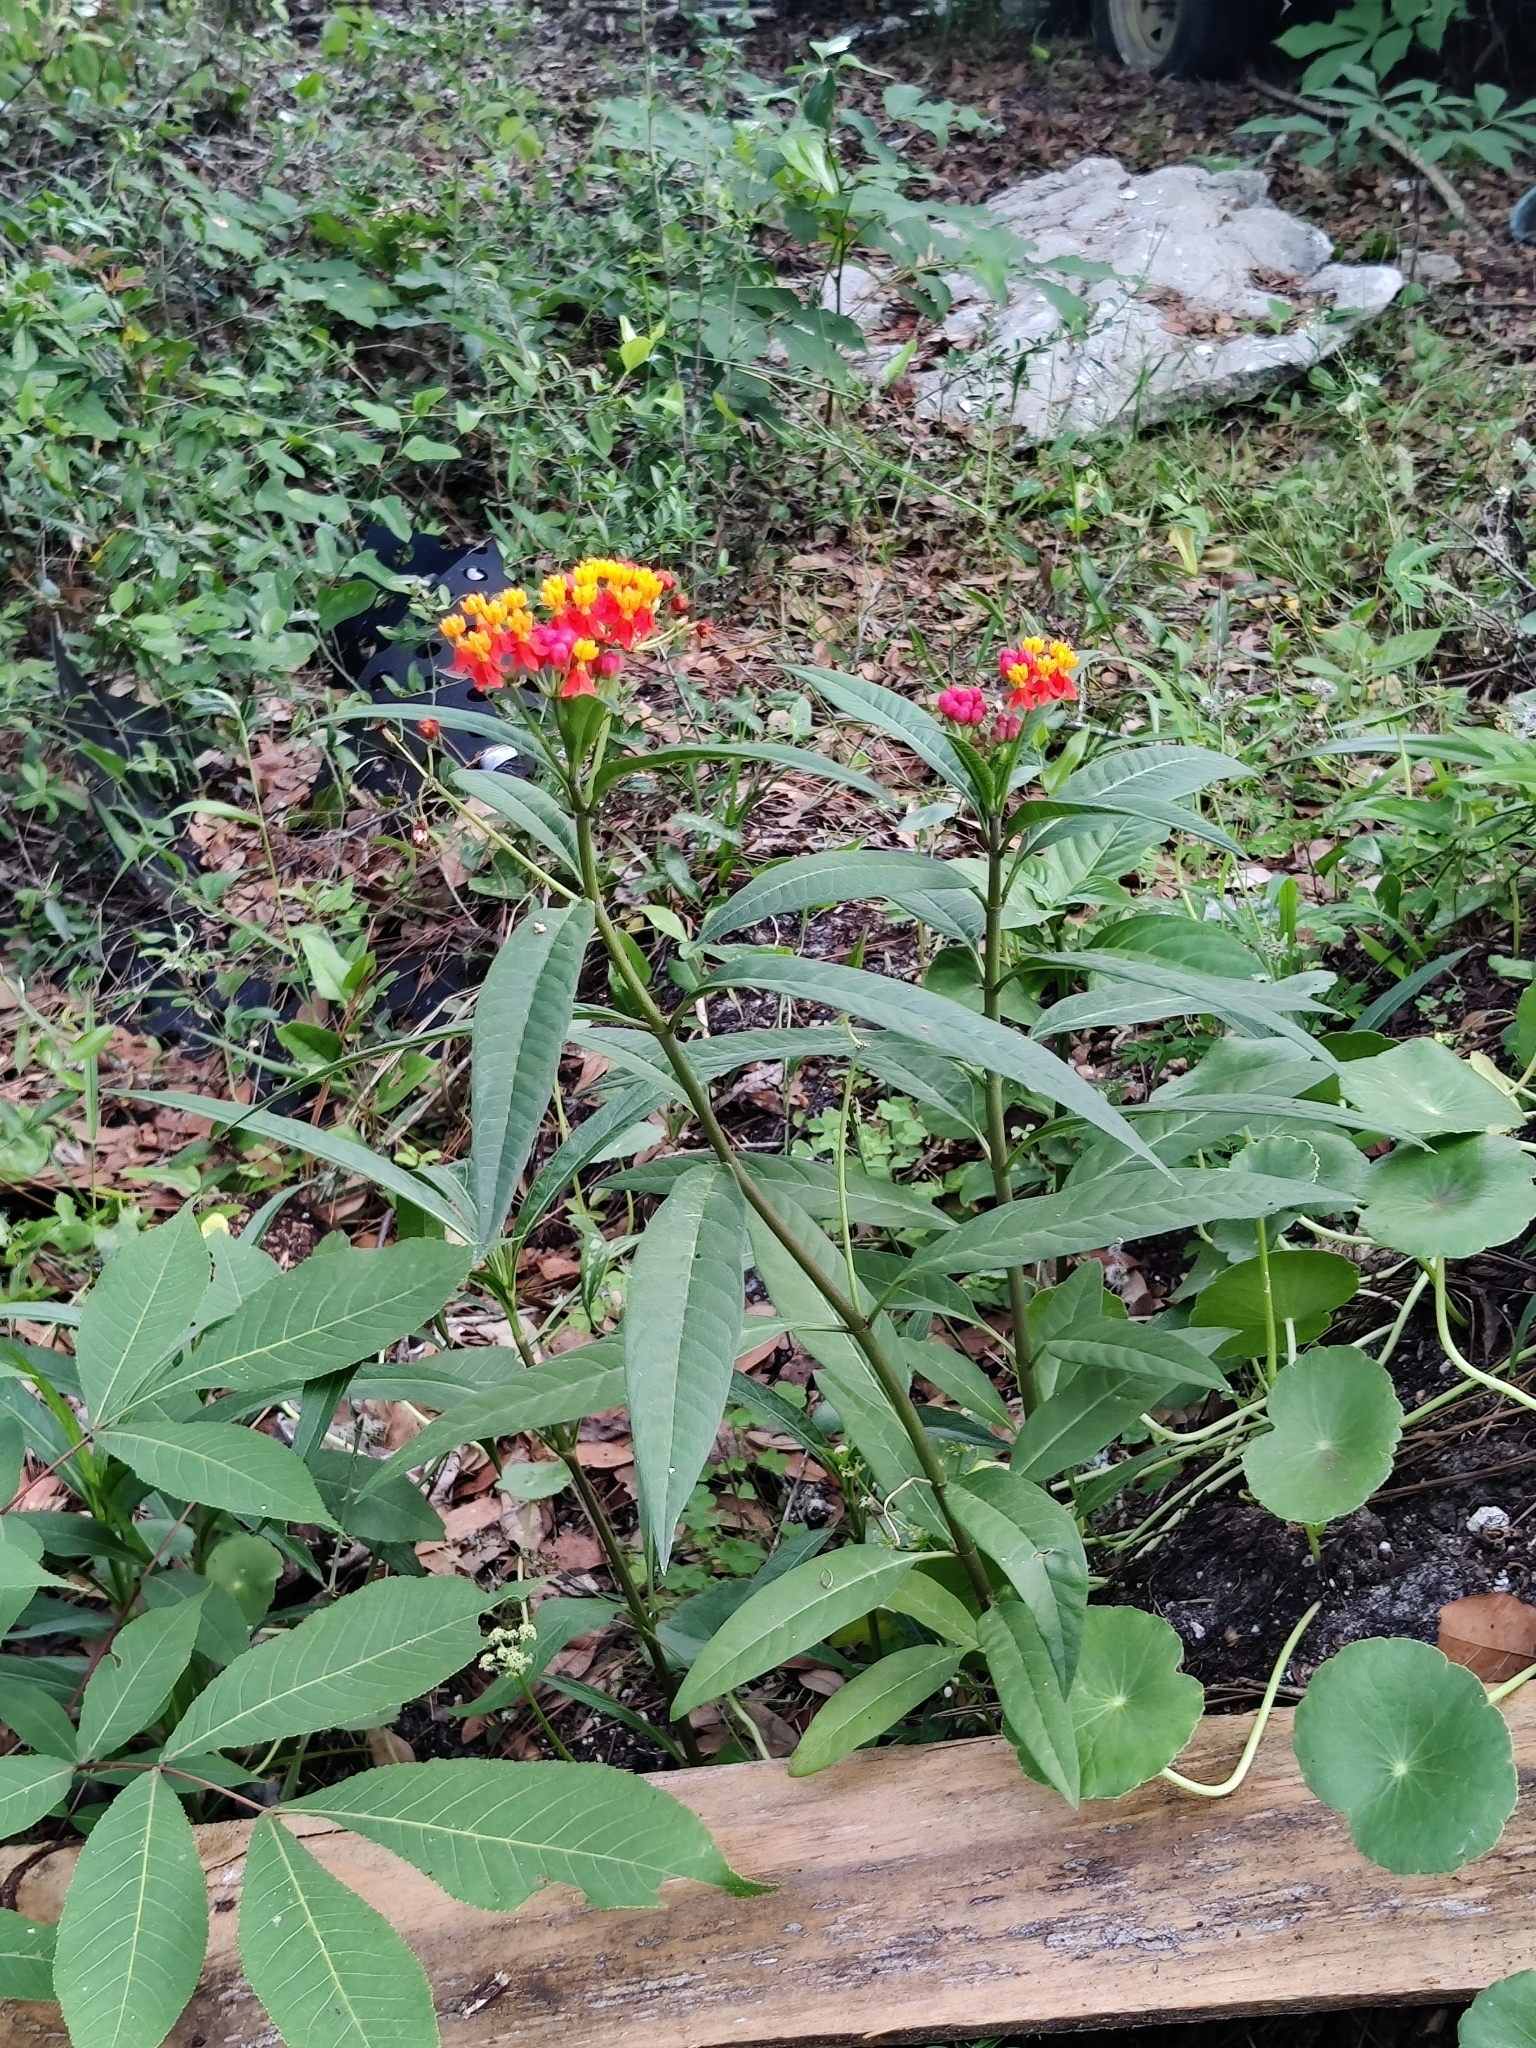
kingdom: Plantae
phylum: Tracheophyta
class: Magnoliopsida
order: Gentianales
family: Apocynaceae
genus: Asclepias
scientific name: Asclepias curassavica
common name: Bloodflower
